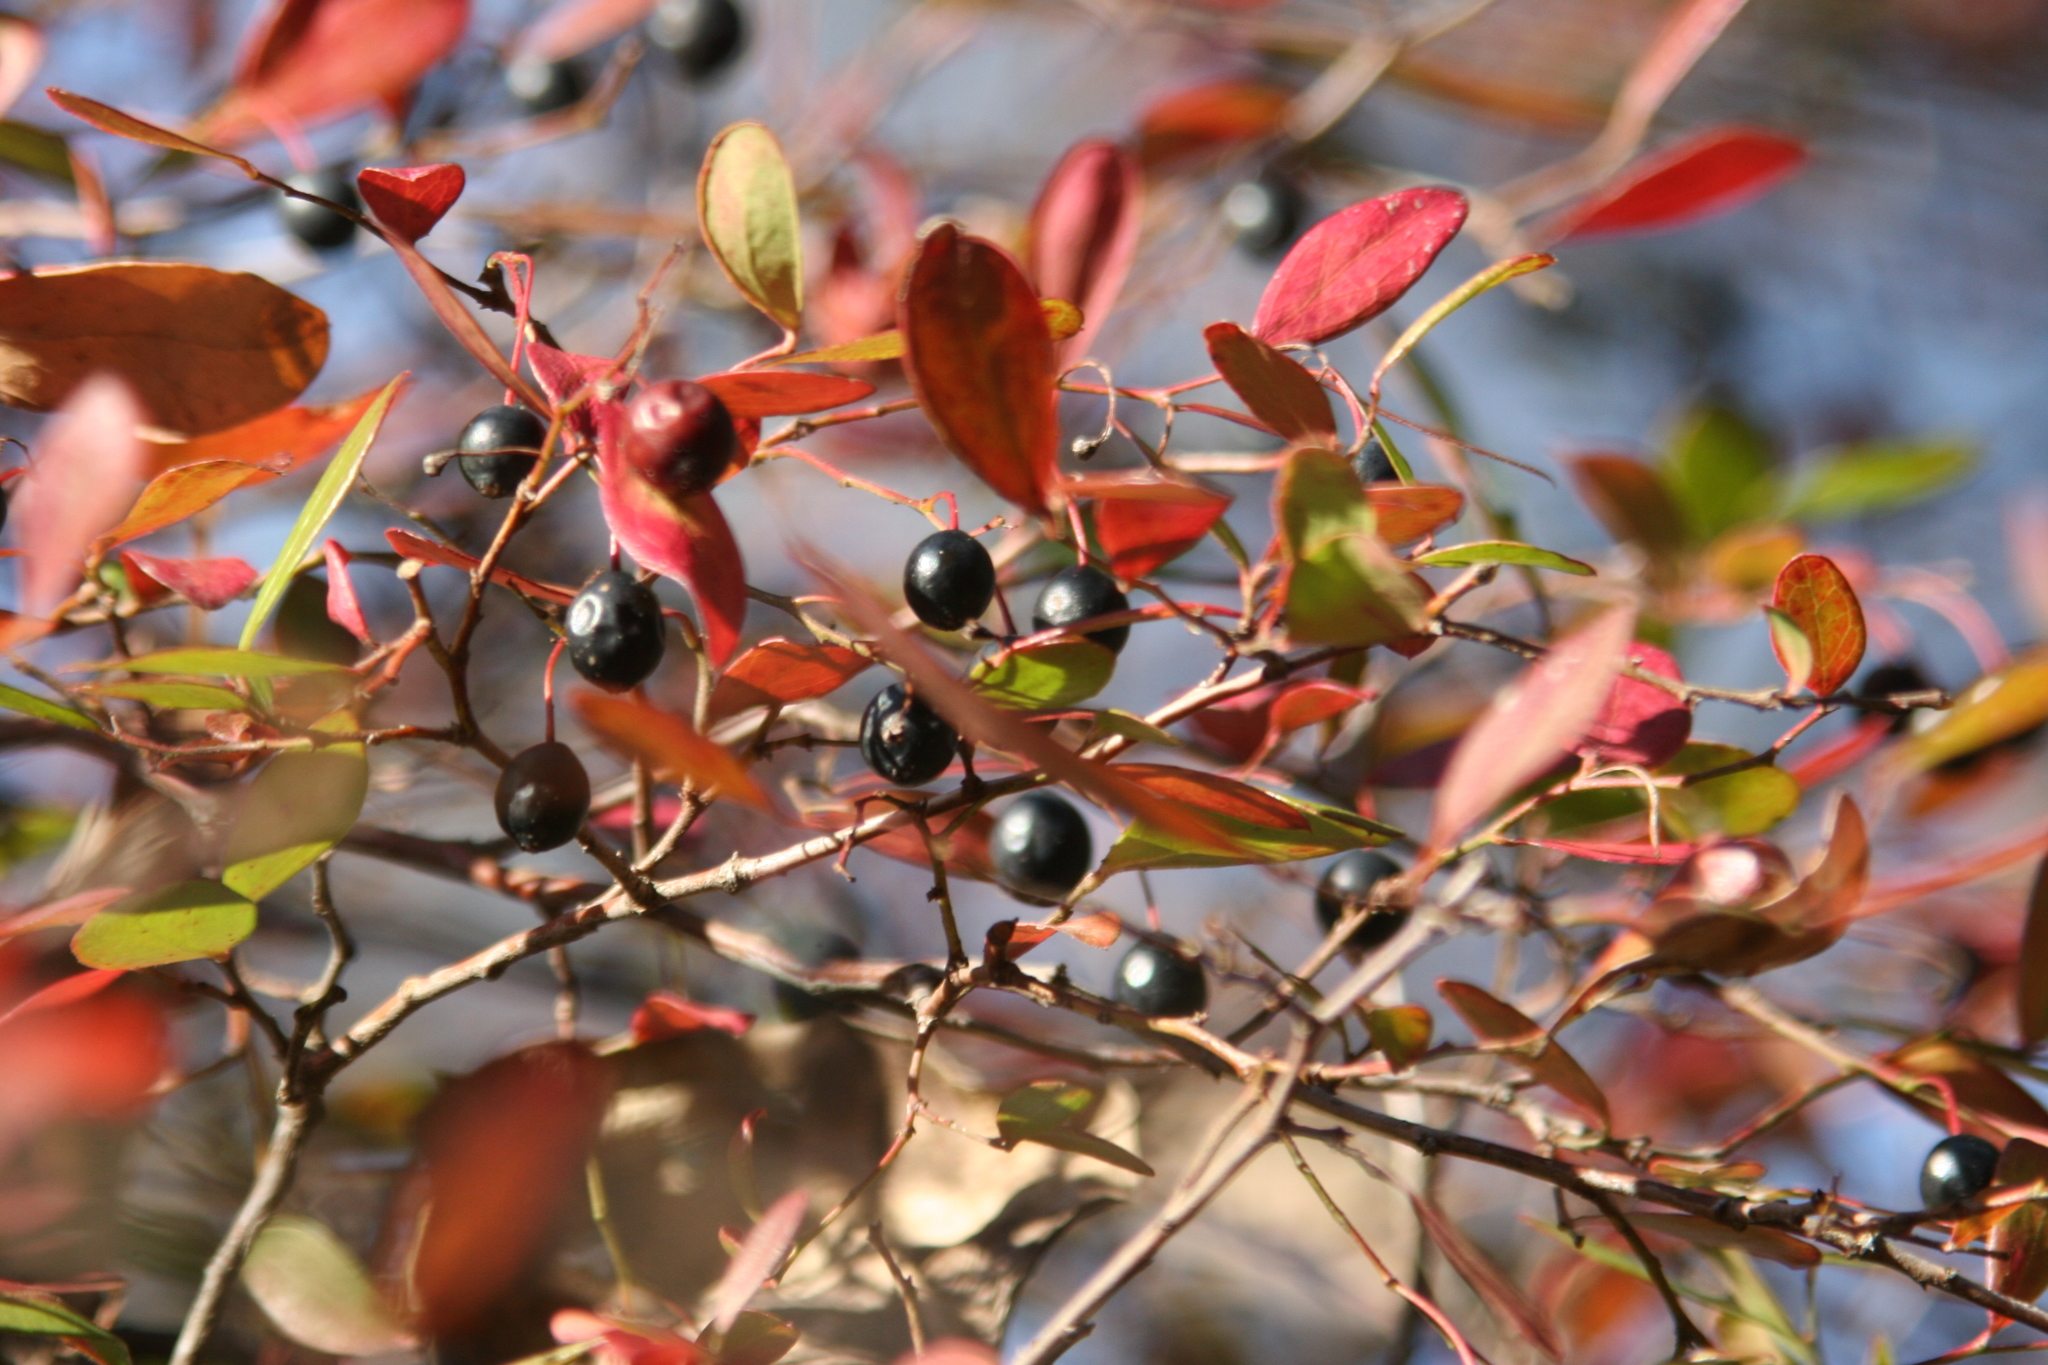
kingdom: Plantae
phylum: Tracheophyta
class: Magnoliopsida
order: Ericales
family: Ericaceae
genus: Vaccinium
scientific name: Vaccinium arboreum
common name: Farkleberry
